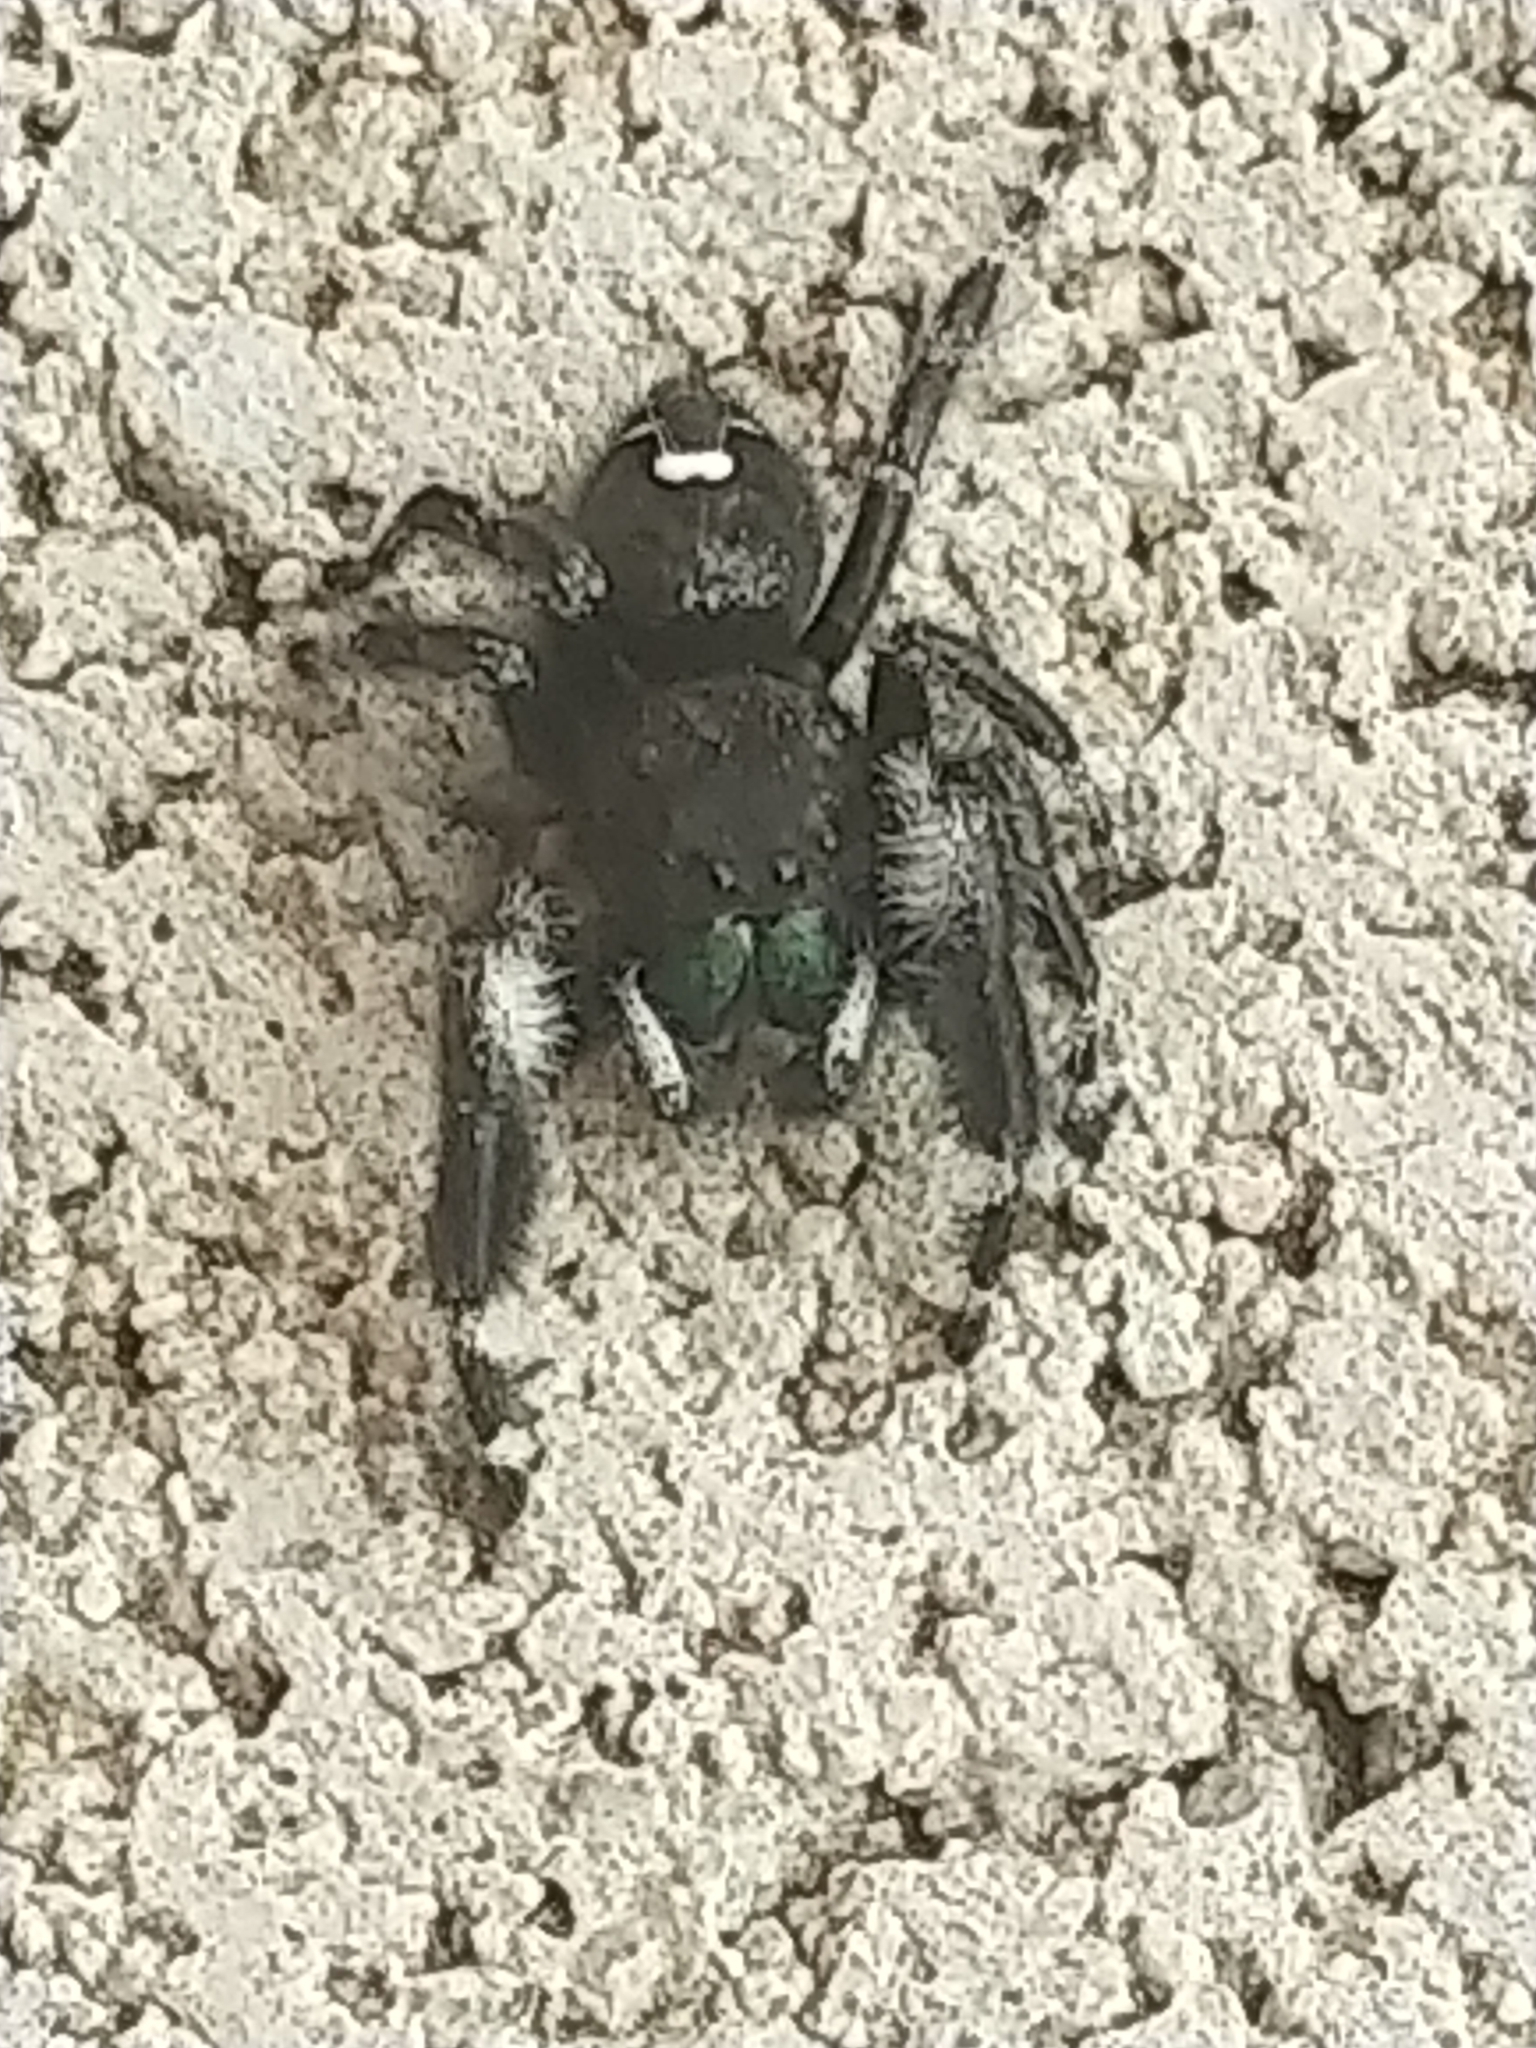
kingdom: Animalia
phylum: Arthropoda
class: Arachnida
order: Araneae
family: Salticidae
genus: Phidippus
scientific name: Phidippus audax
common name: Bold jumper
